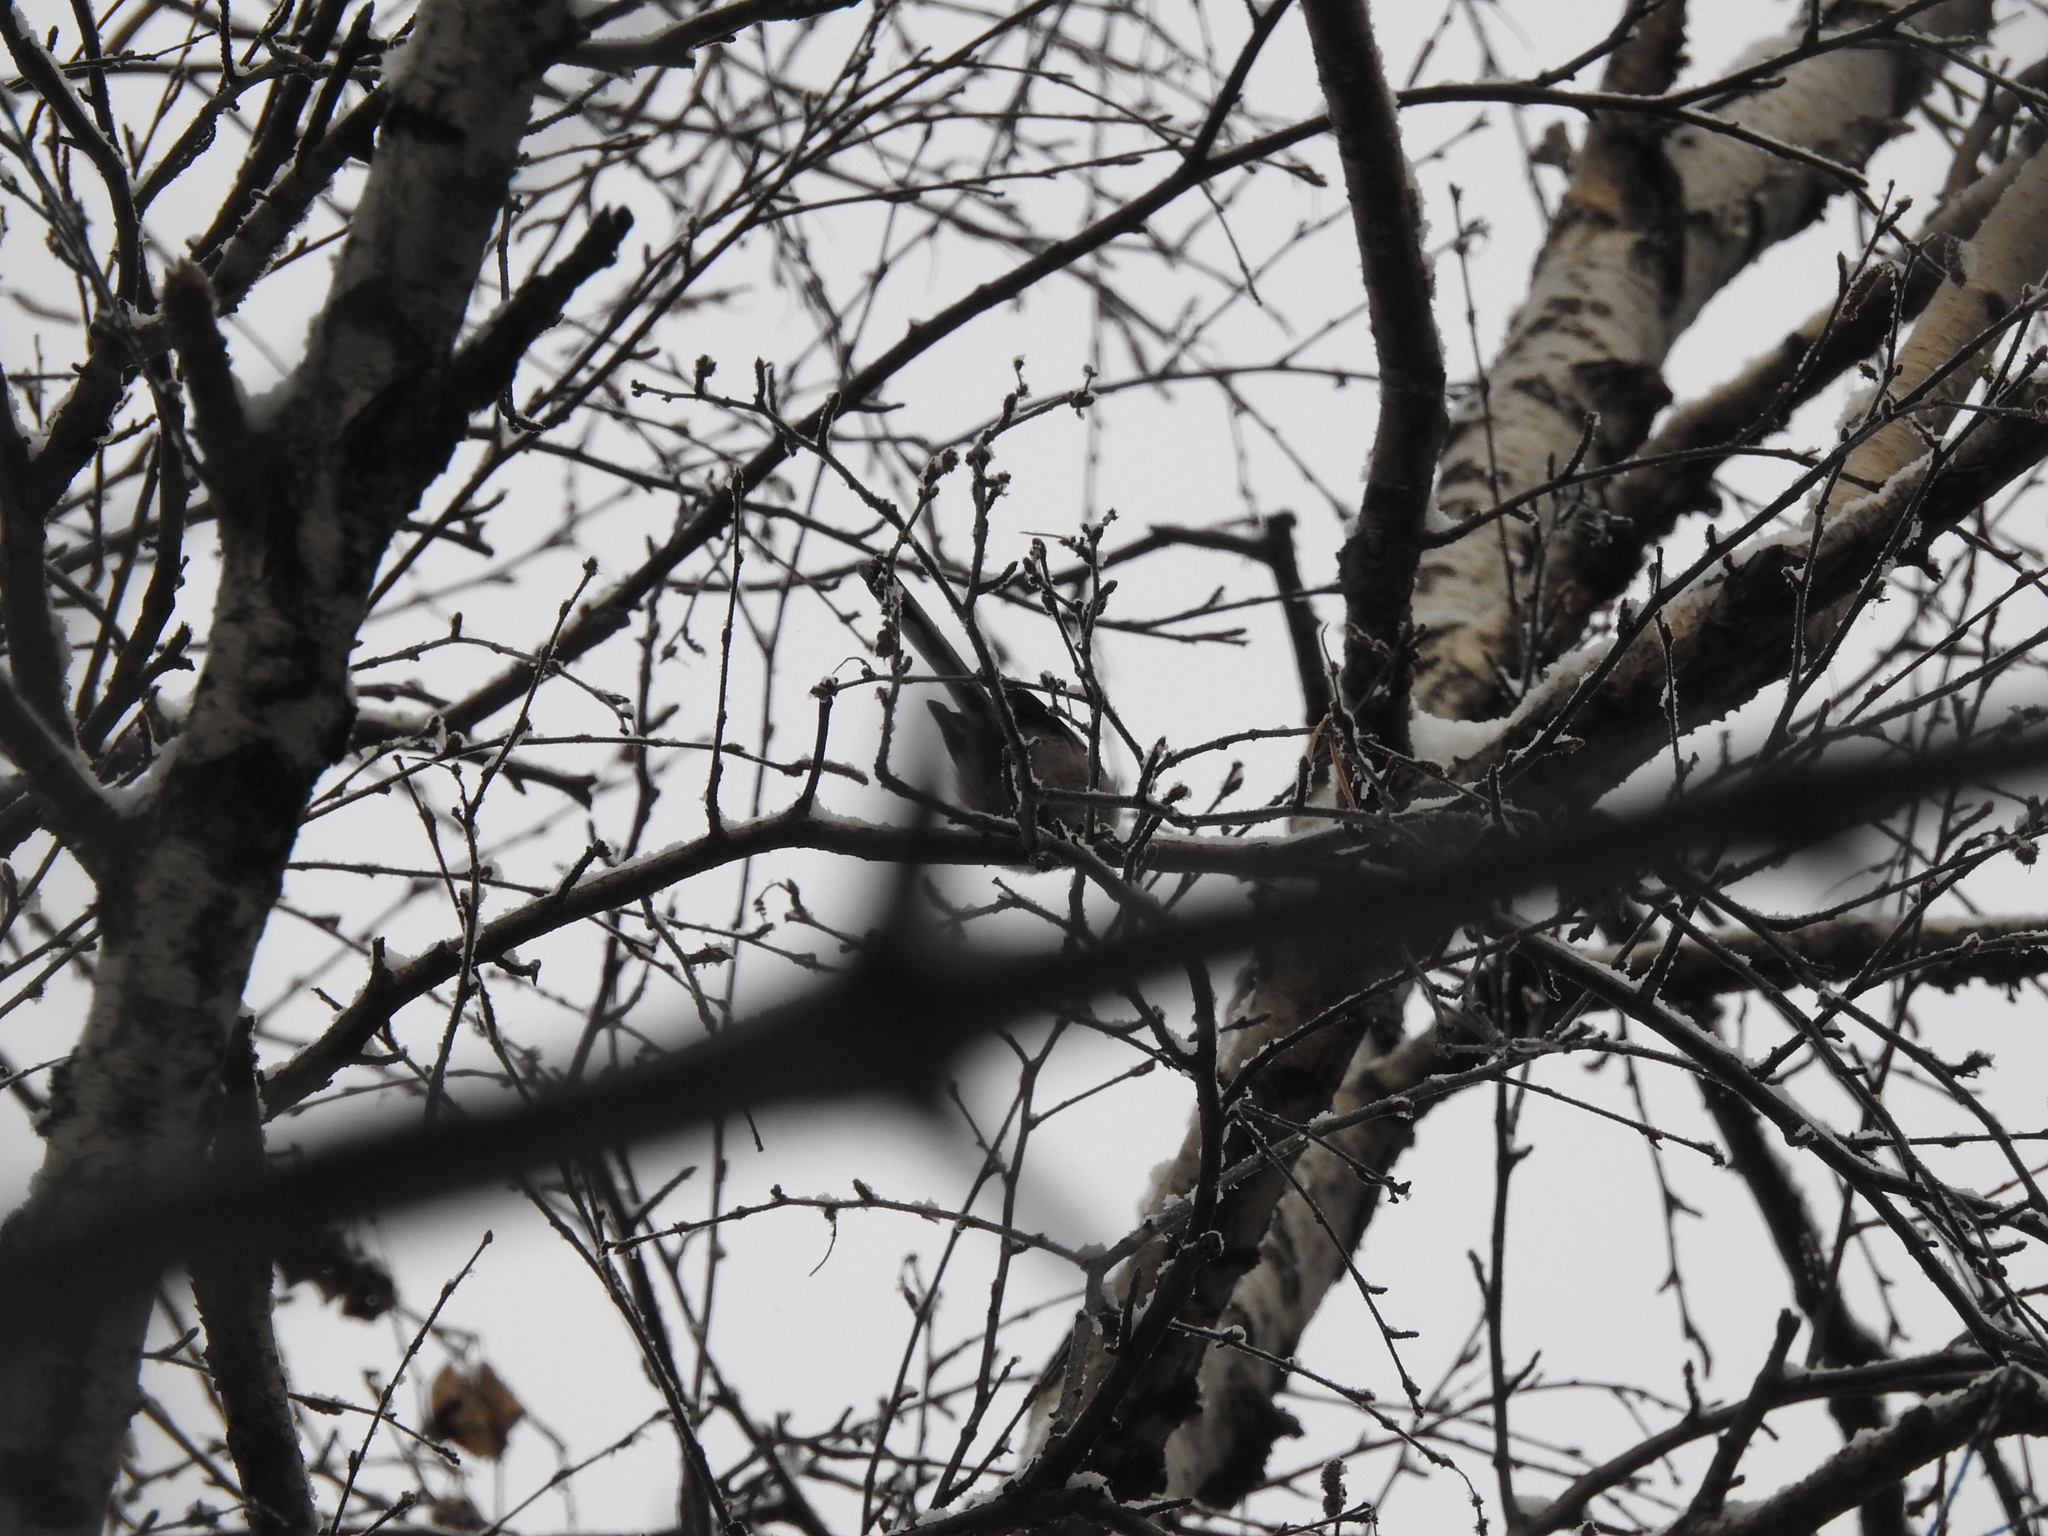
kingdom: Animalia
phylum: Chordata
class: Aves
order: Passeriformes
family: Aegithalidae
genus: Aegithalos
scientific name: Aegithalos caudatus
